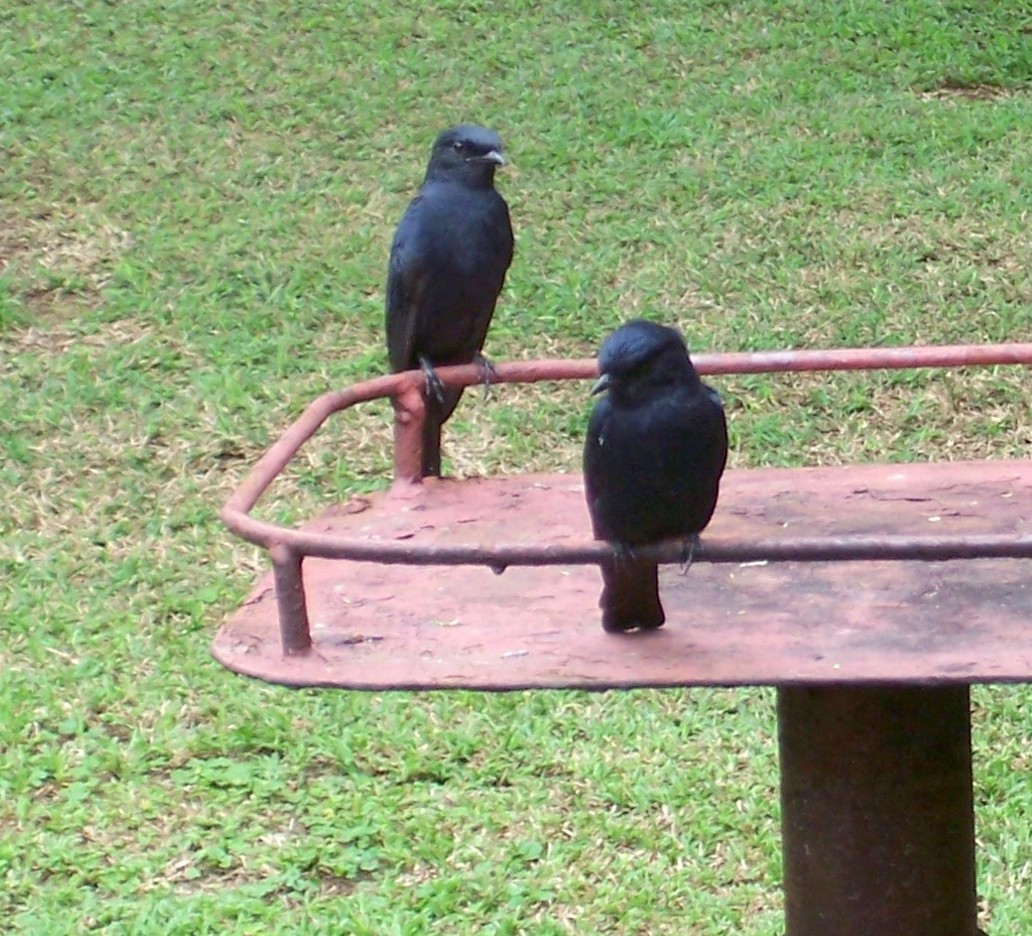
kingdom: Animalia
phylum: Chordata
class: Aves
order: Passeriformes
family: Muscicapidae
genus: Melaenornis
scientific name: Melaenornis pammelaina
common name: Southern black flycatcher
